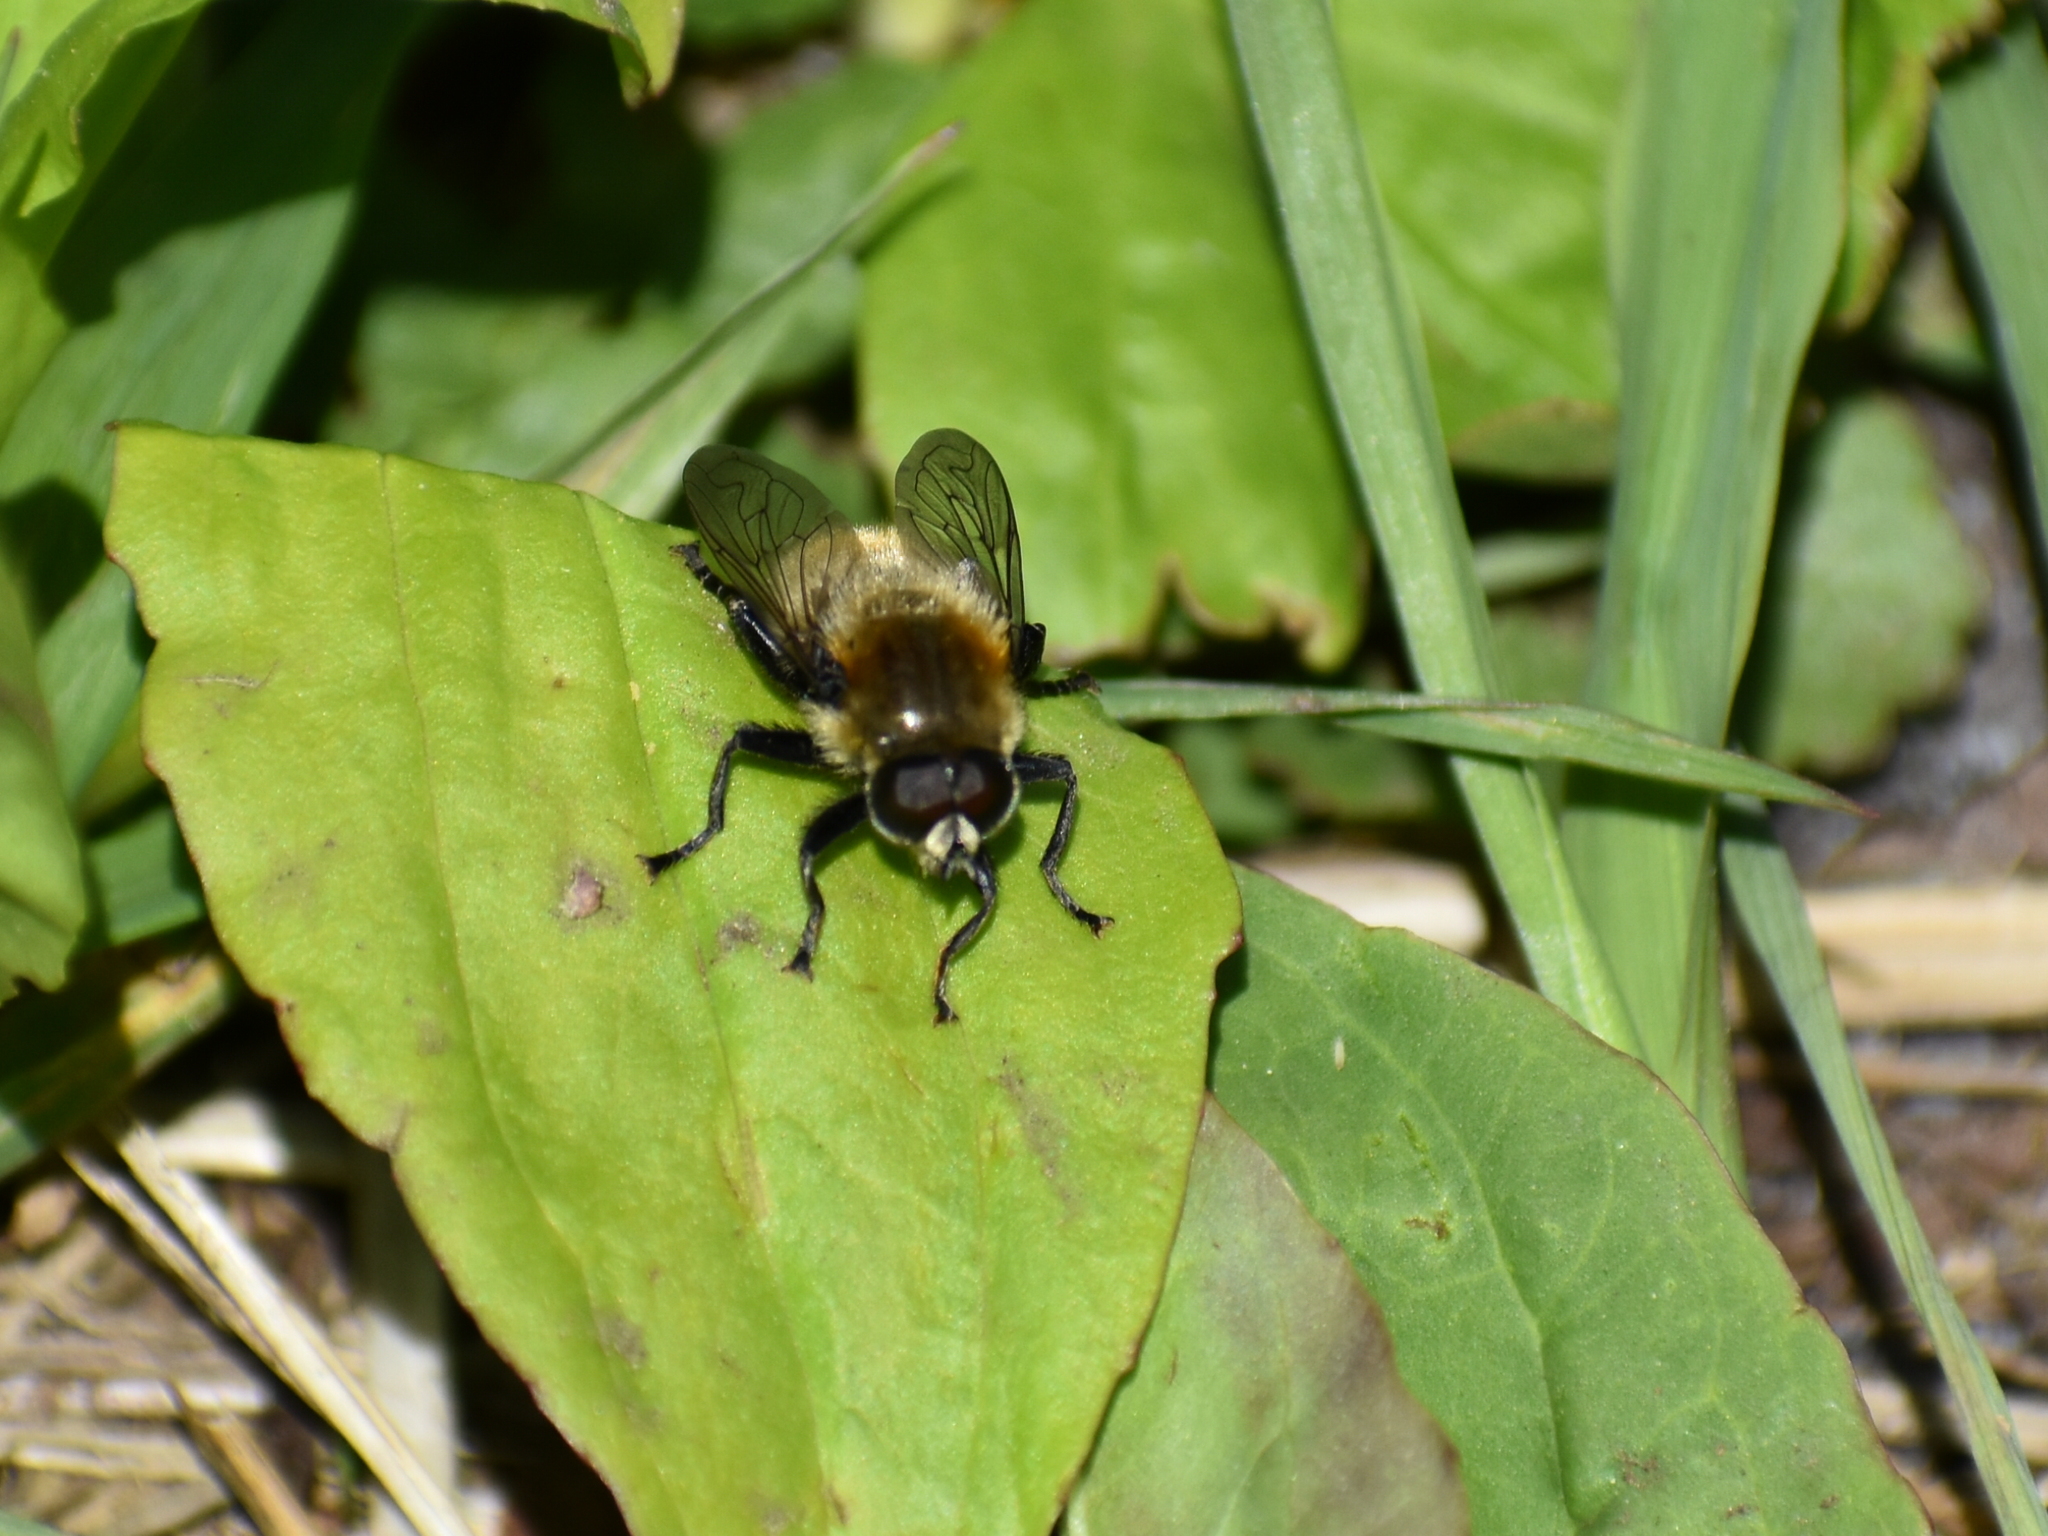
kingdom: Animalia
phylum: Arthropoda
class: Insecta
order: Diptera
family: Syrphidae
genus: Merodon
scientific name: Merodon equestris
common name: Greater bulb-fly
